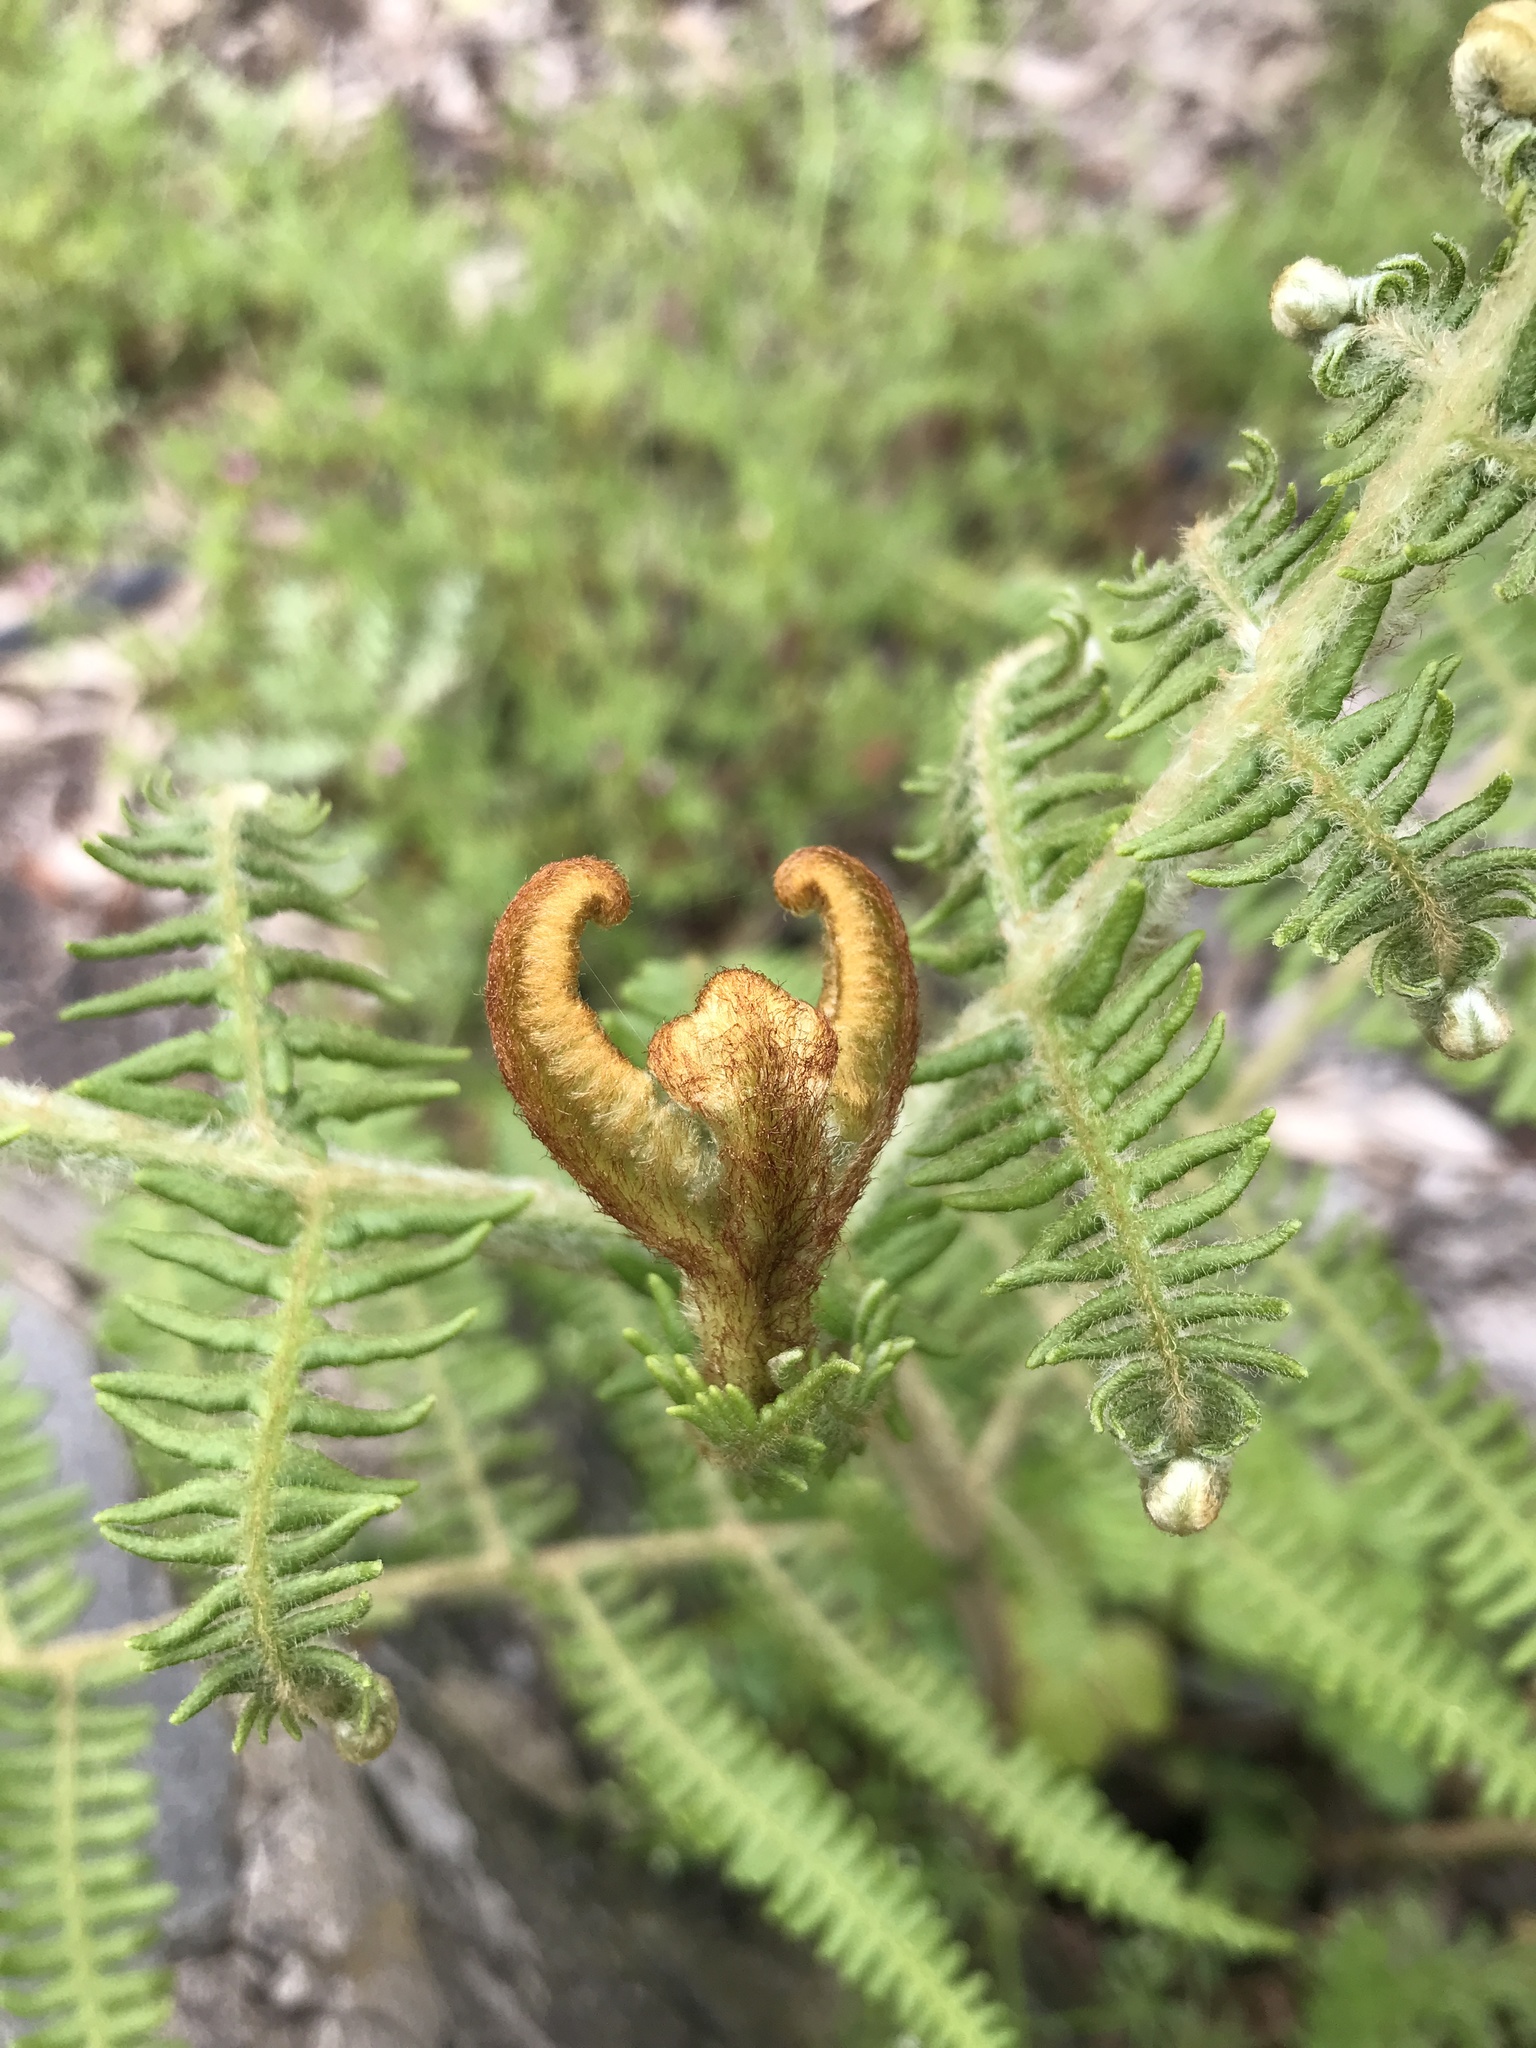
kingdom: Plantae
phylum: Tracheophyta
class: Polypodiopsida
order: Polypodiales
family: Dennstaedtiaceae
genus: Pteridium
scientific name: Pteridium aquilinum
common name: Bracken
